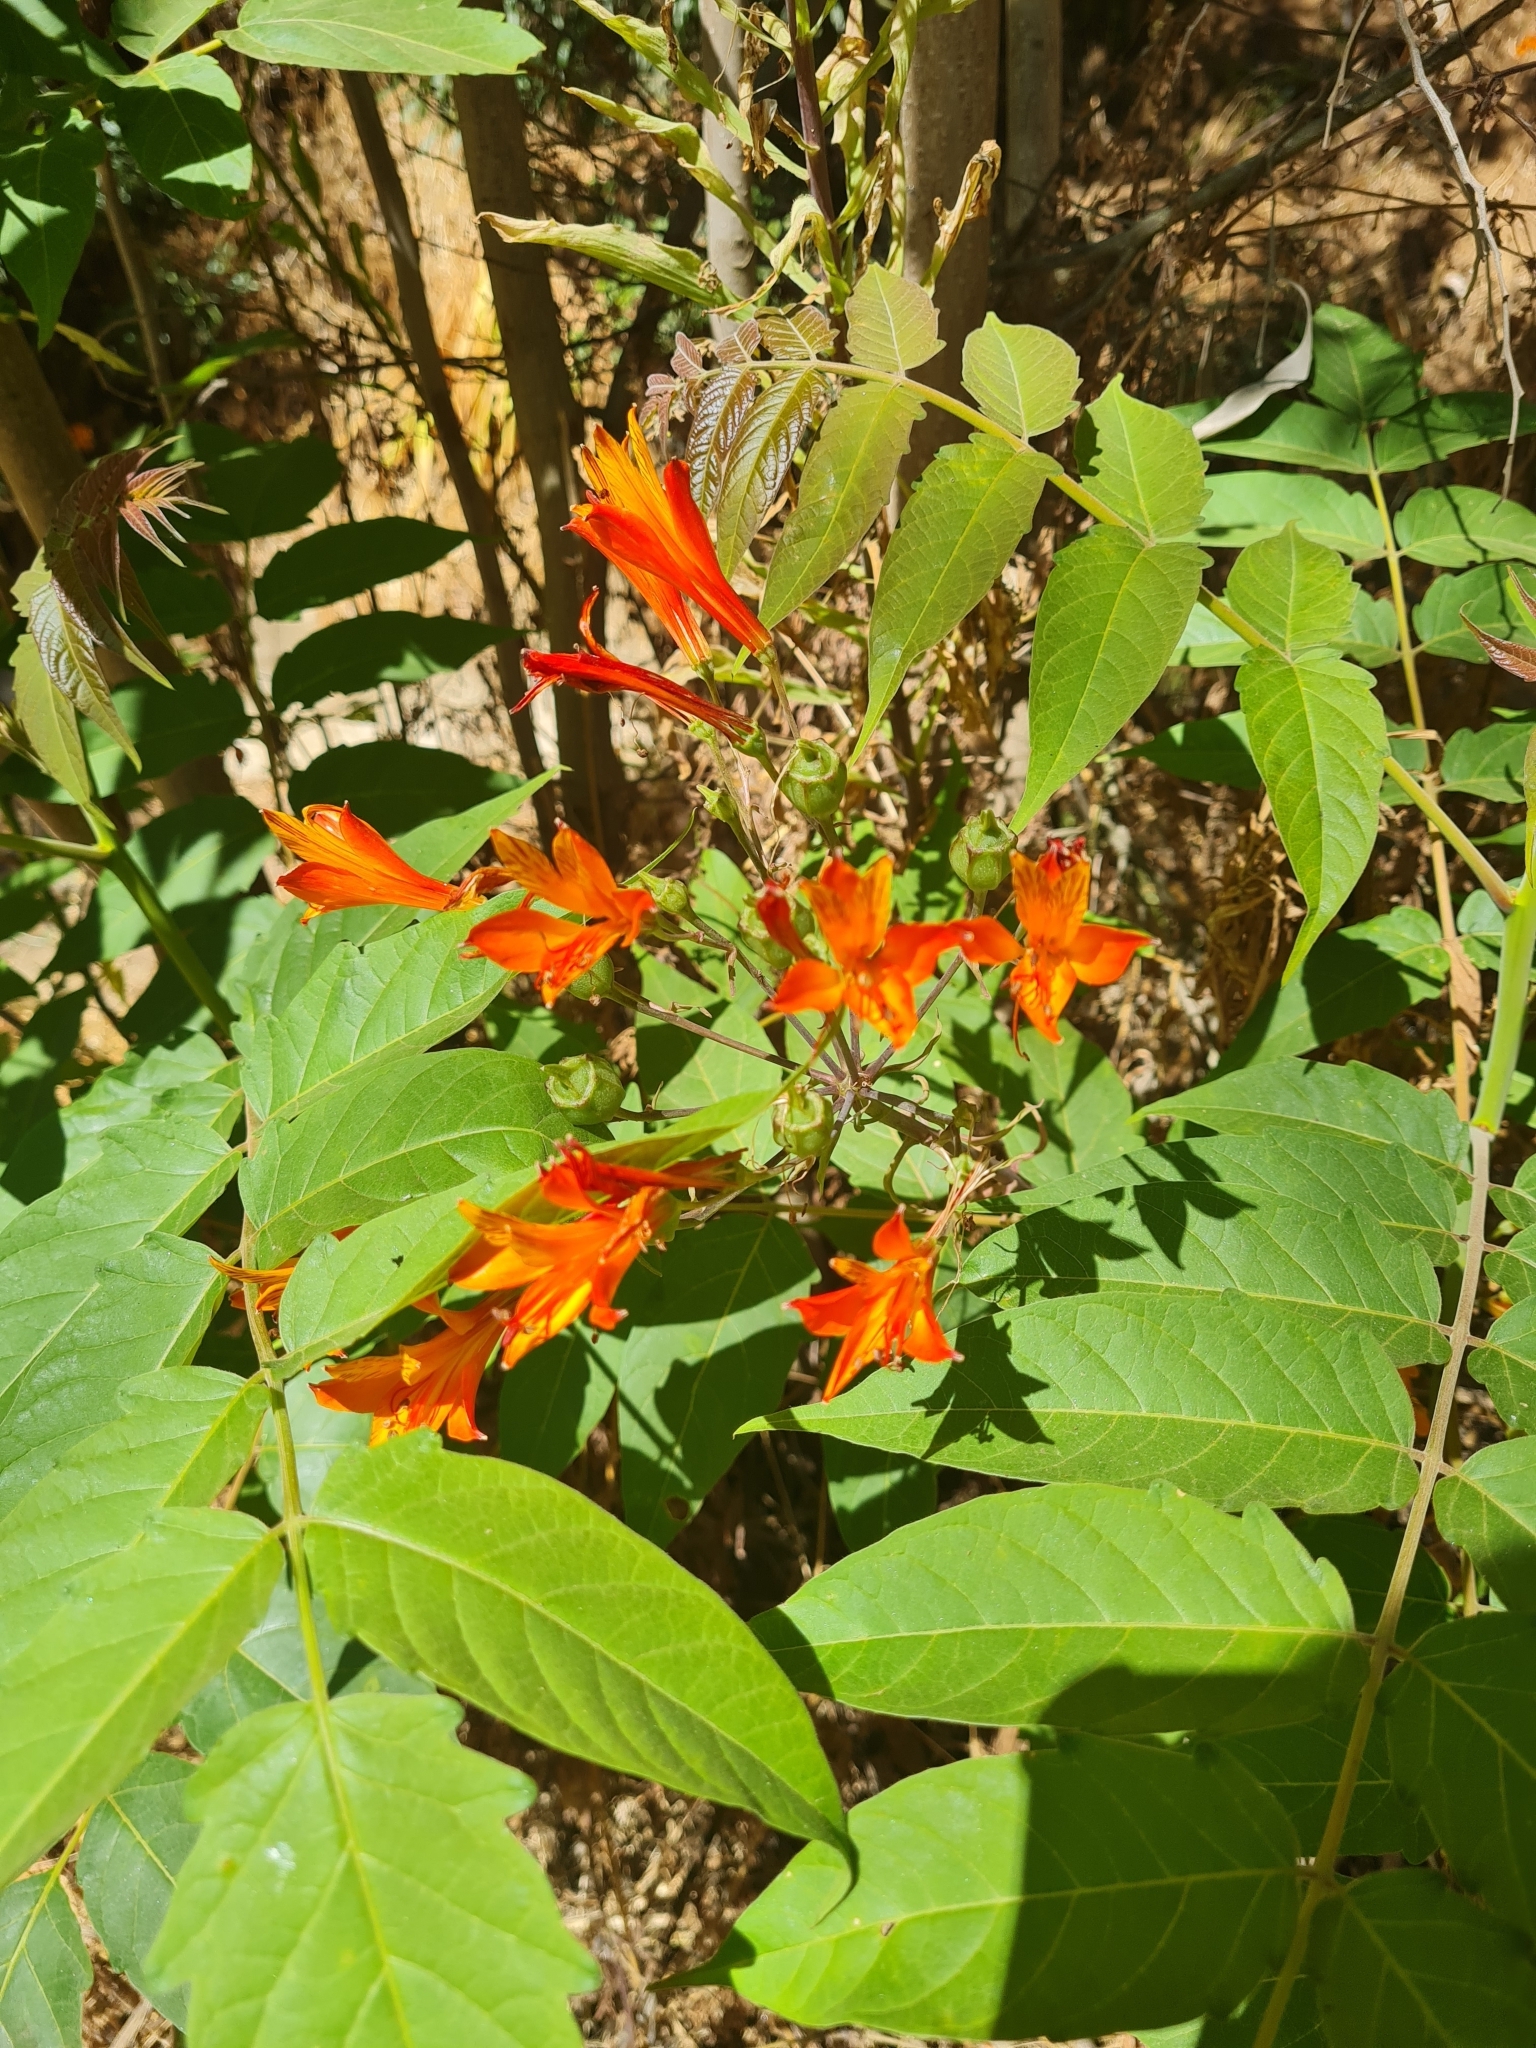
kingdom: Plantae
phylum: Tracheophyta
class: Liliopsida
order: Liliales
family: Alstroemeriaceae
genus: Alstroemeria
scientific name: Alstroemeria ligtu
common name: St. martin's-flower
